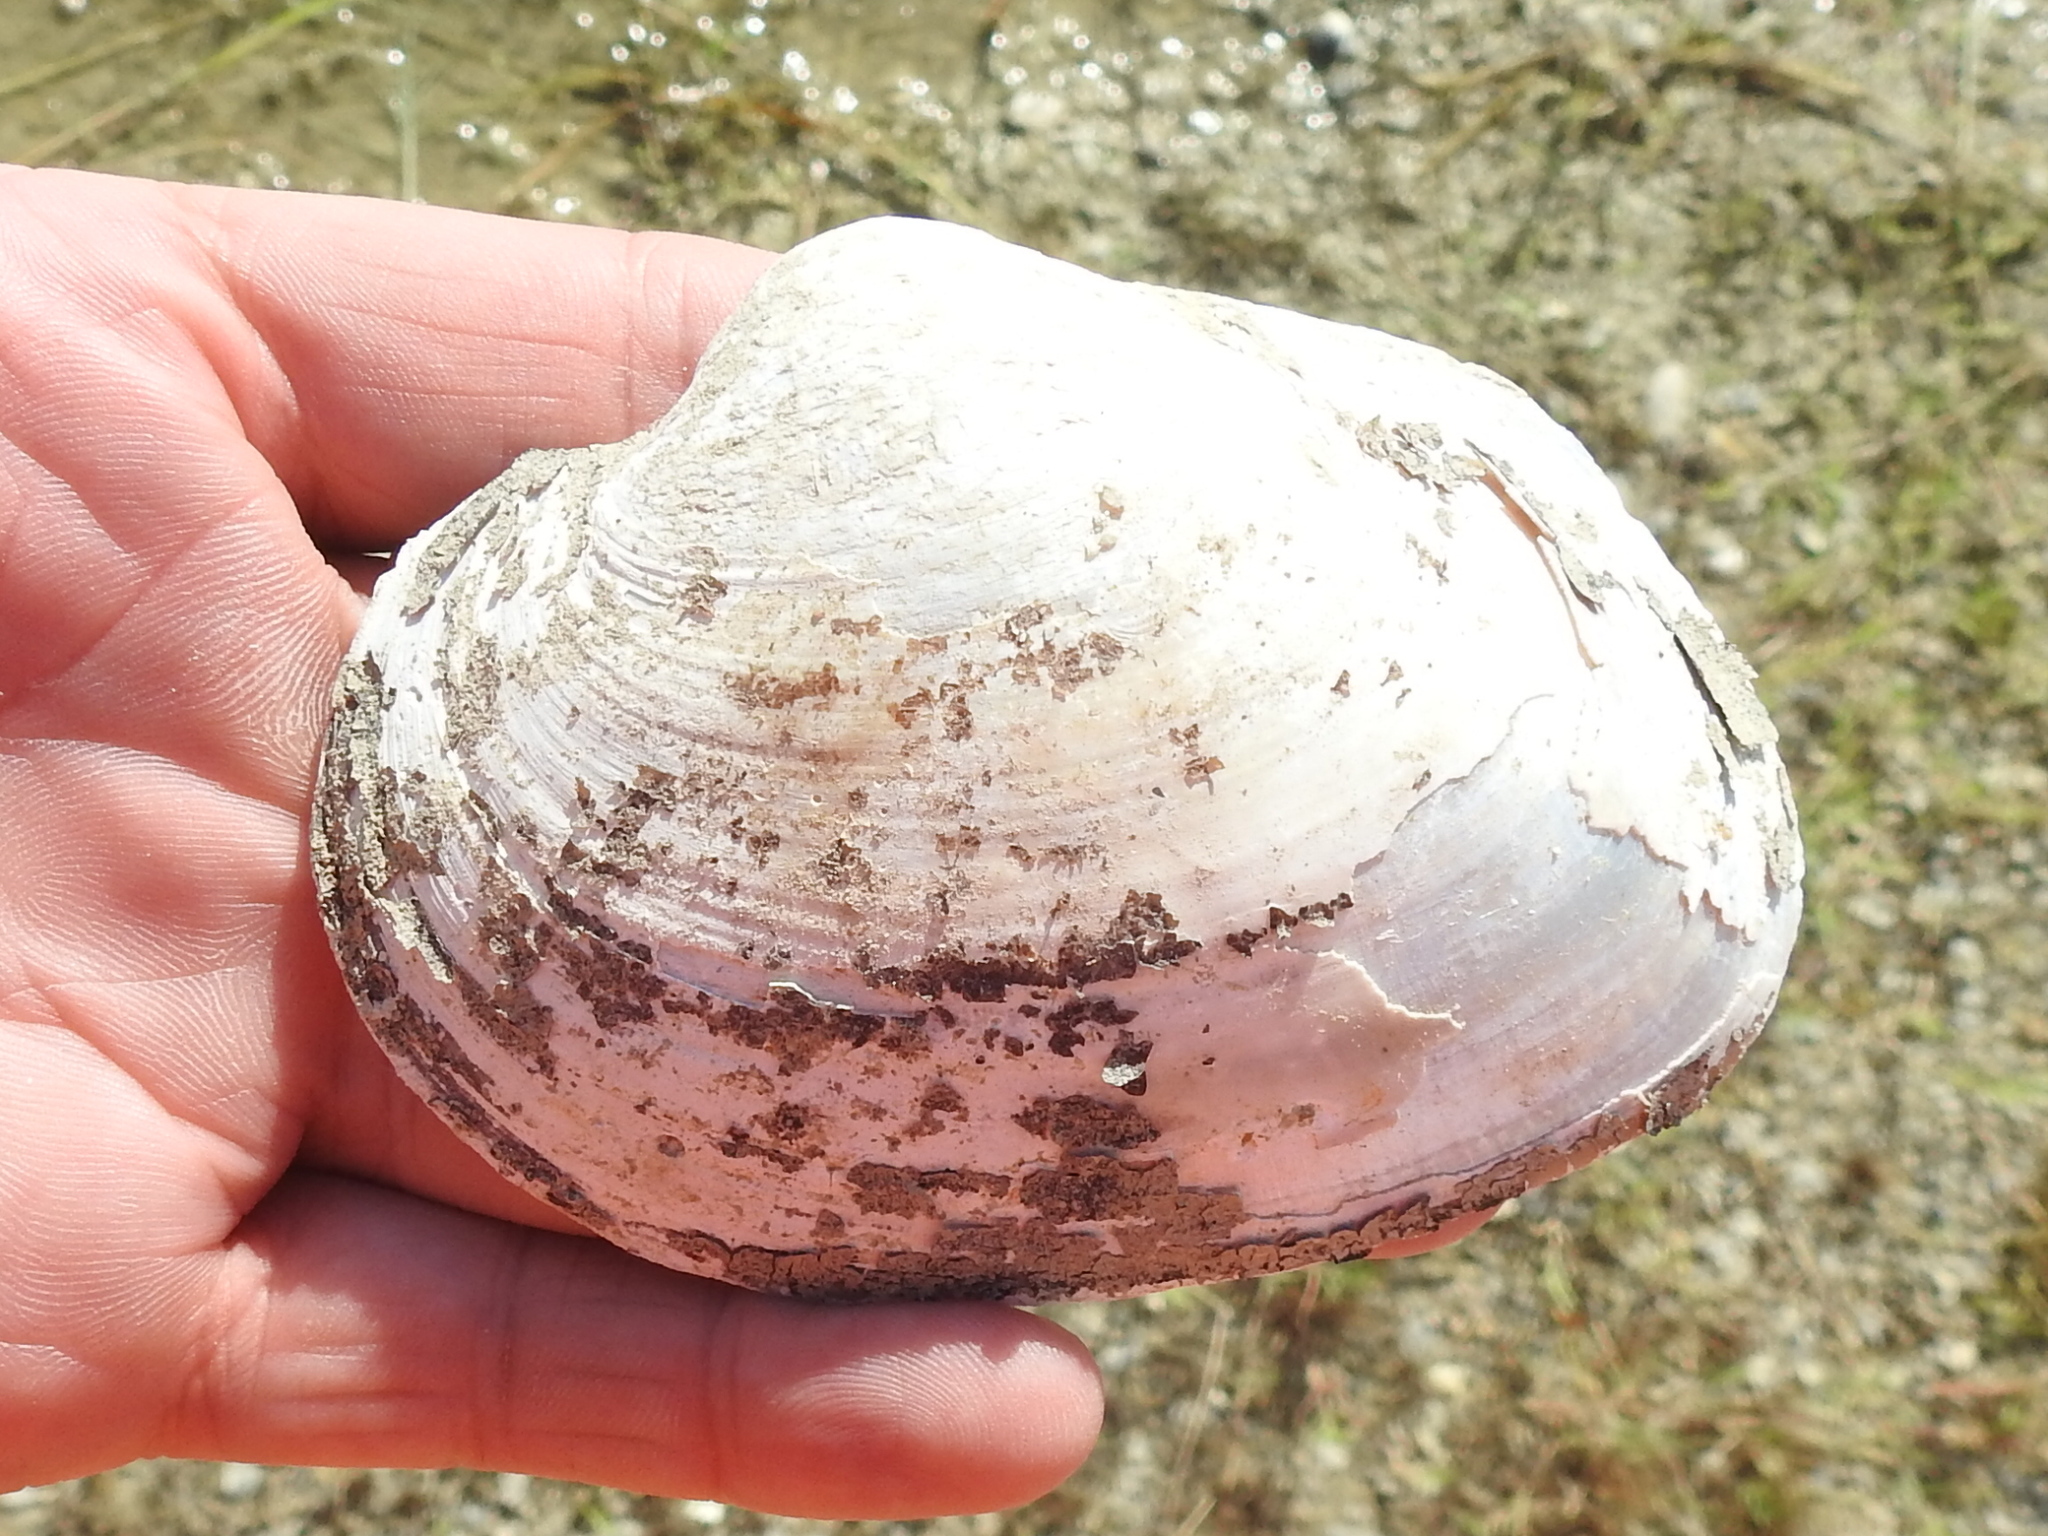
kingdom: Animalia
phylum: Mollusca
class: Bivalvia
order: Unionida
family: Unionidae
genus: Cyrtonaias
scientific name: Cyrtonaias tampicoensis
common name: Tampico pearlymussel
